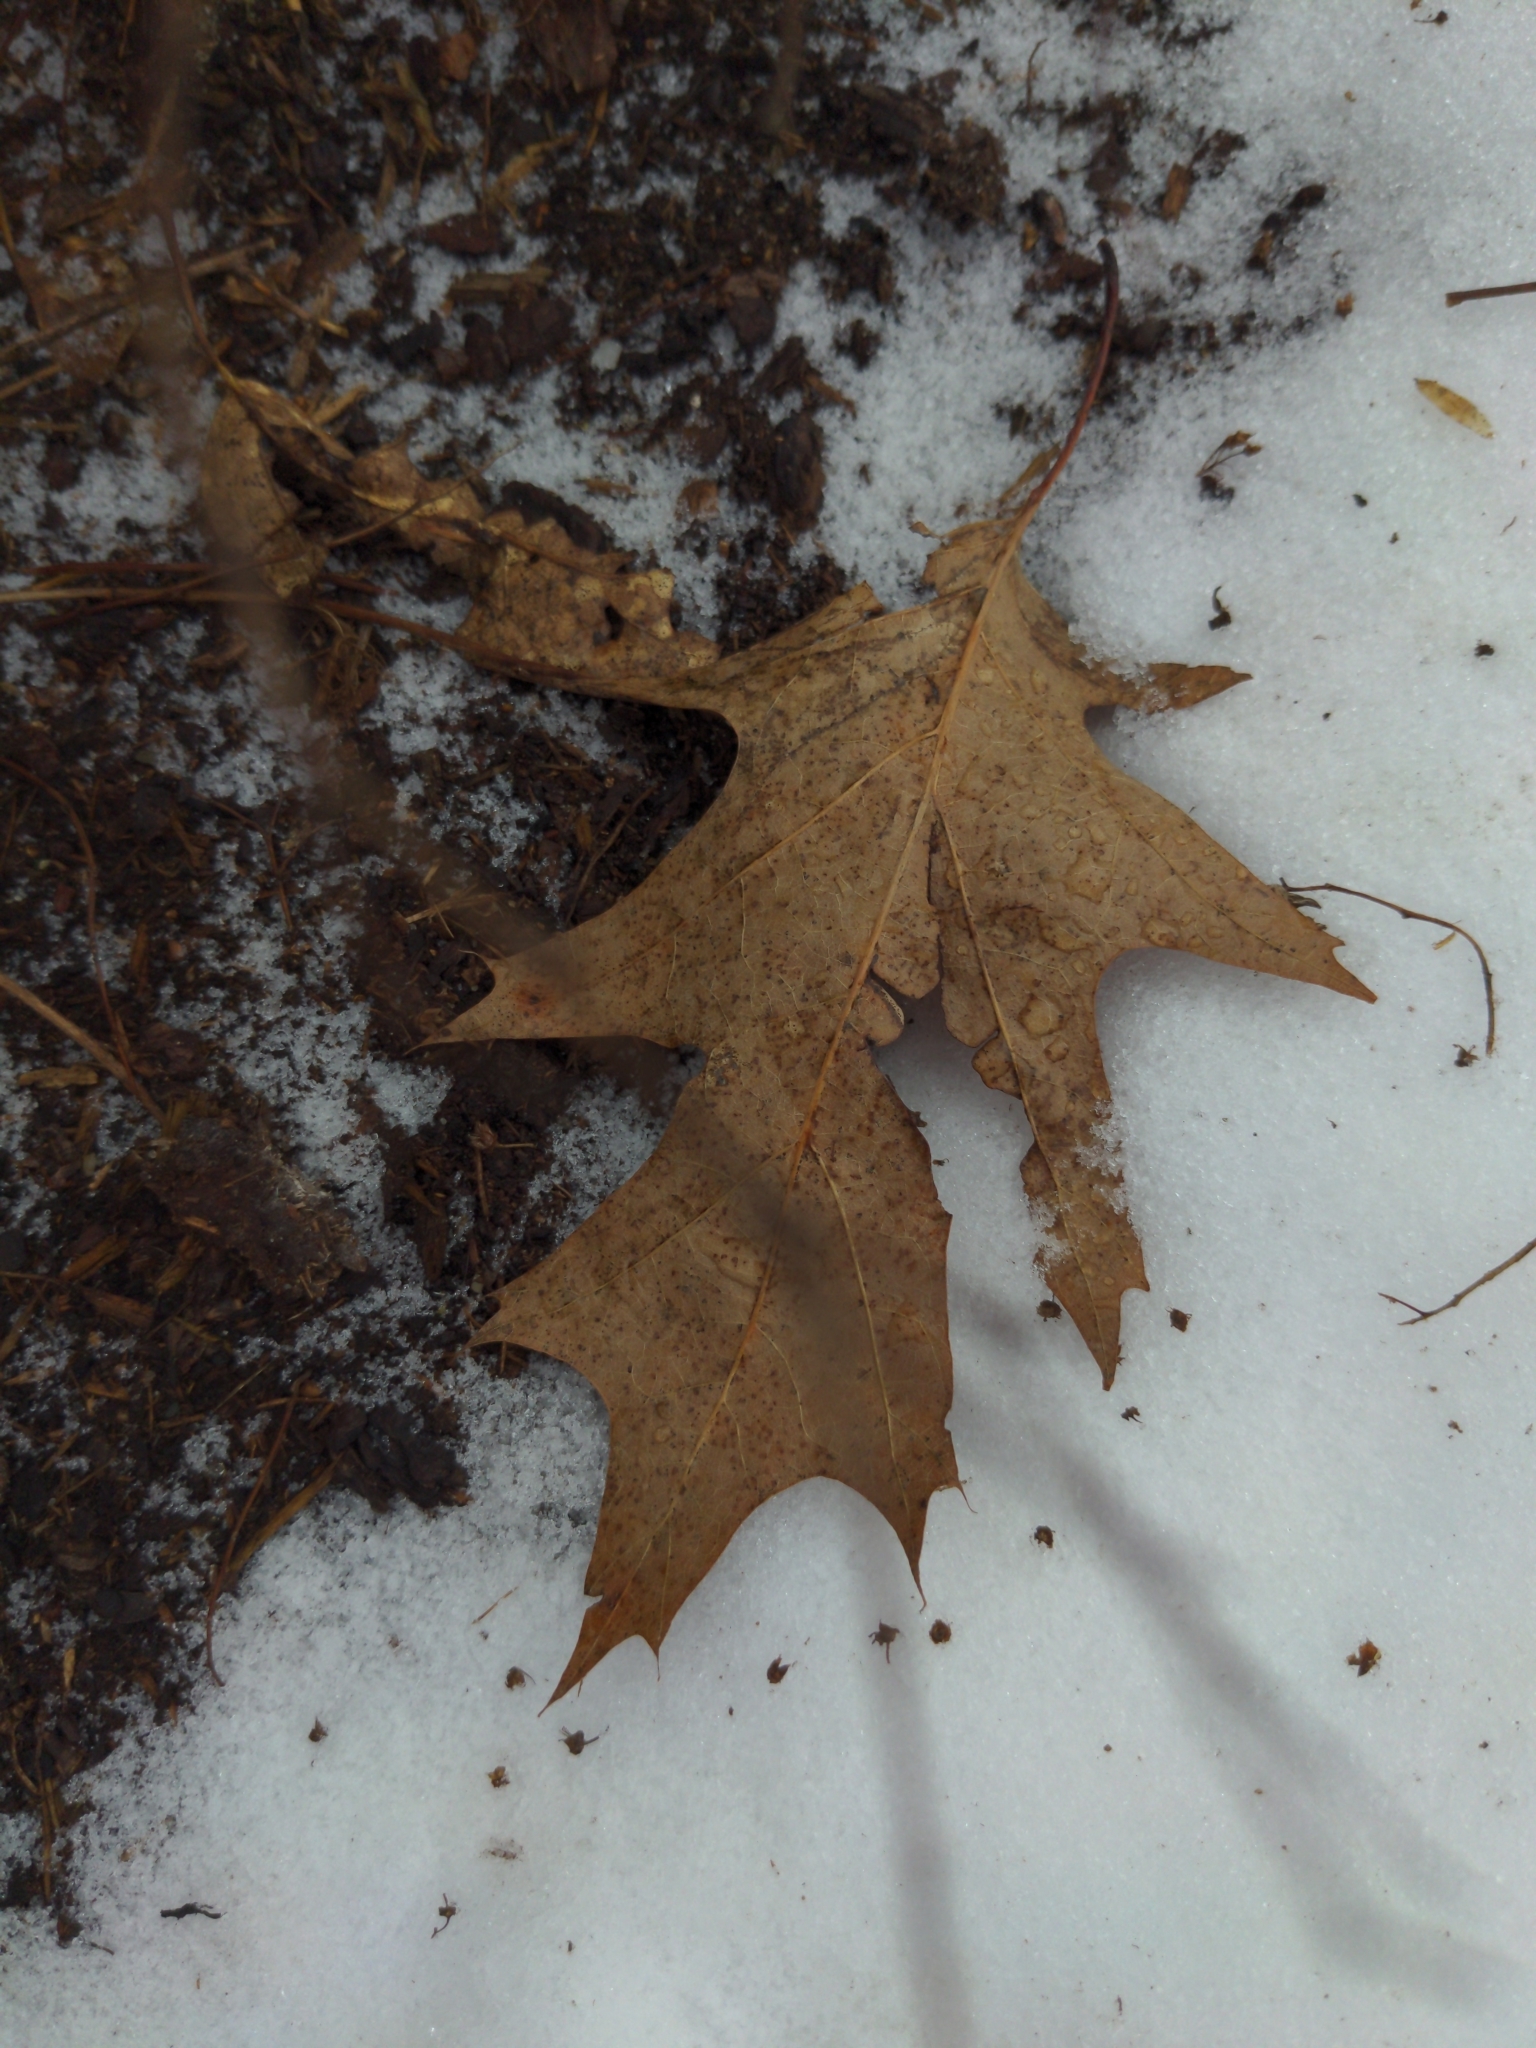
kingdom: Plantae
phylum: Tracheophyta
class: Magnoliopsida
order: Fagales
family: Fagaceae
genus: Quercus
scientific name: Quercus rubra
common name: Red oak
